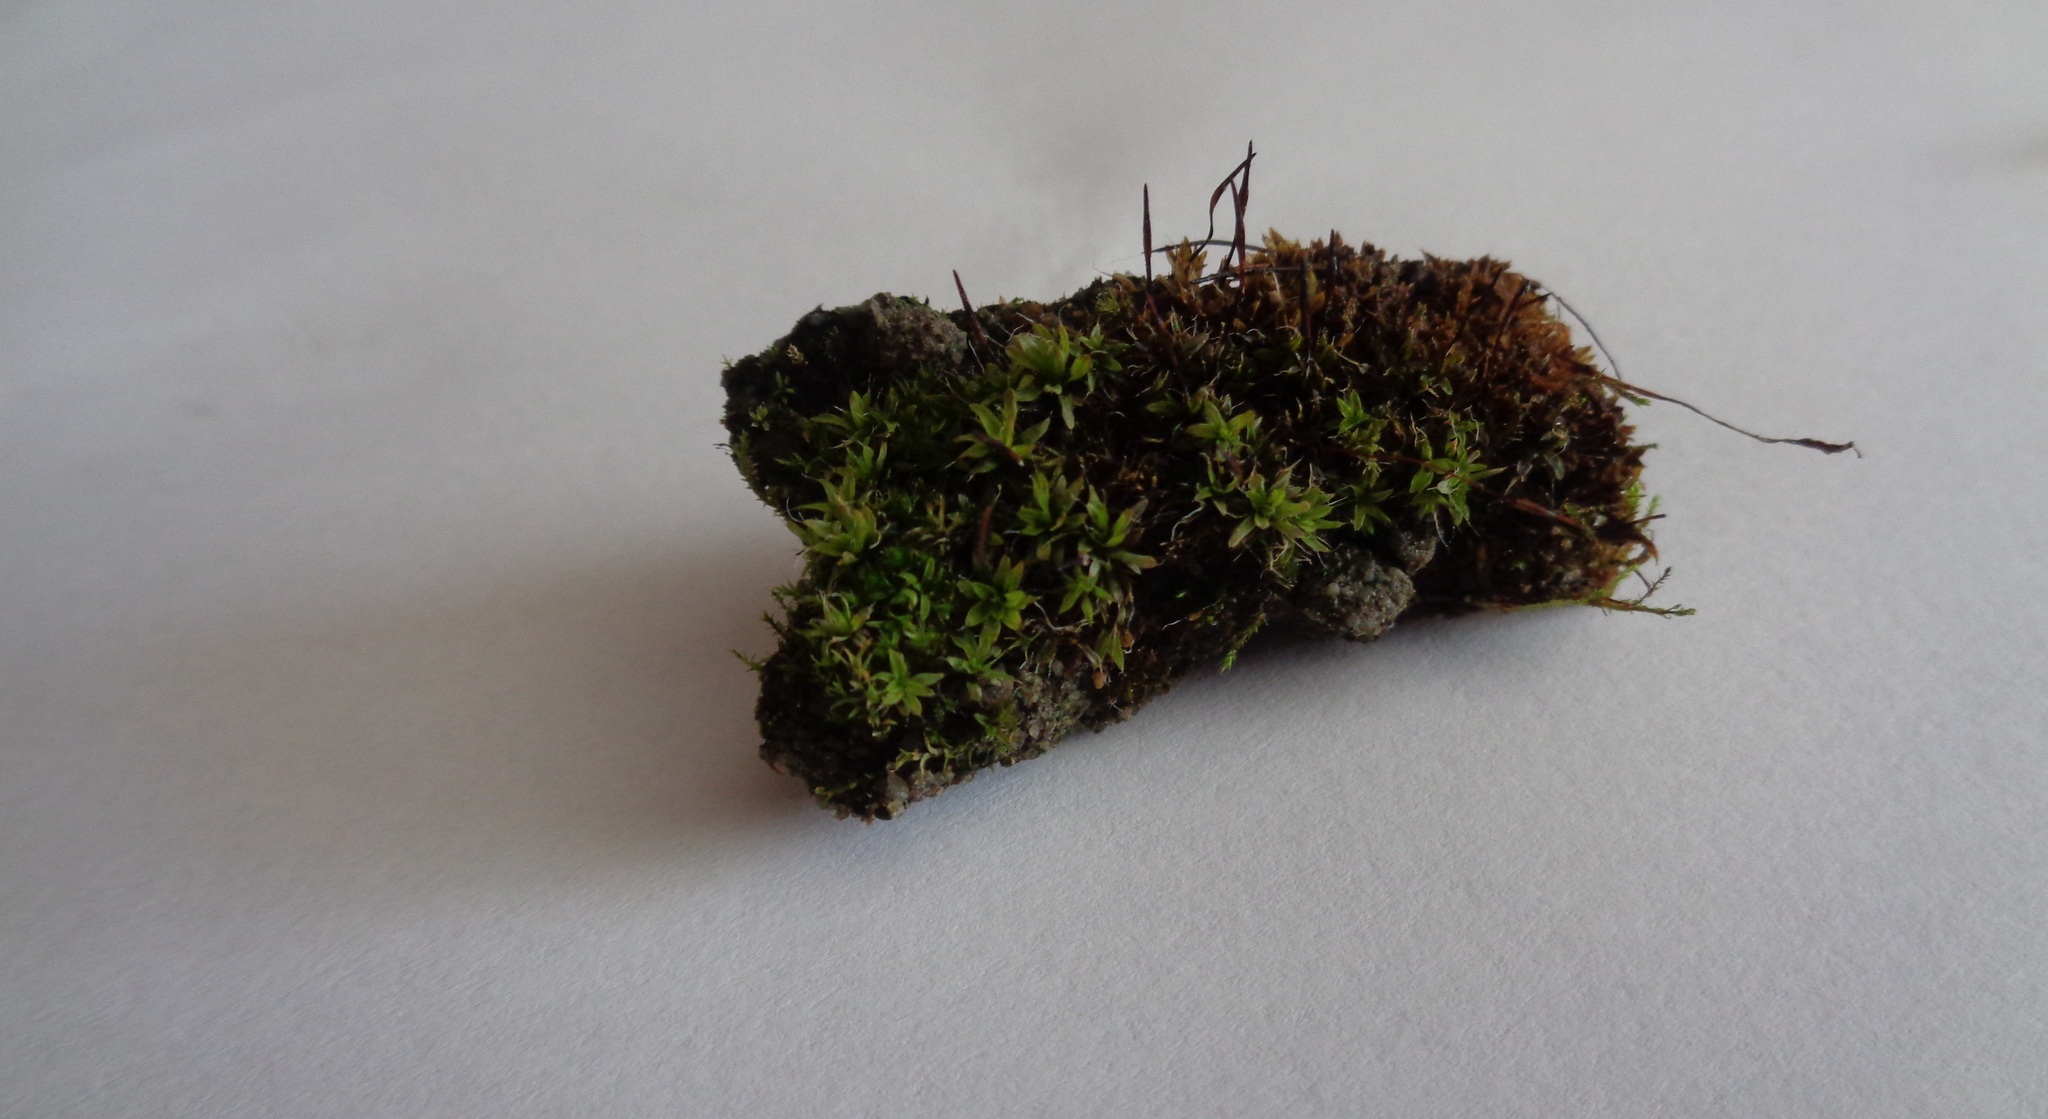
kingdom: Plantae
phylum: Bryophyta
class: Bryopsida
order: Pottiales
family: Pottiaceae
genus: Tortula
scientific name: Tortula muralis
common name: Wall screw-moss
